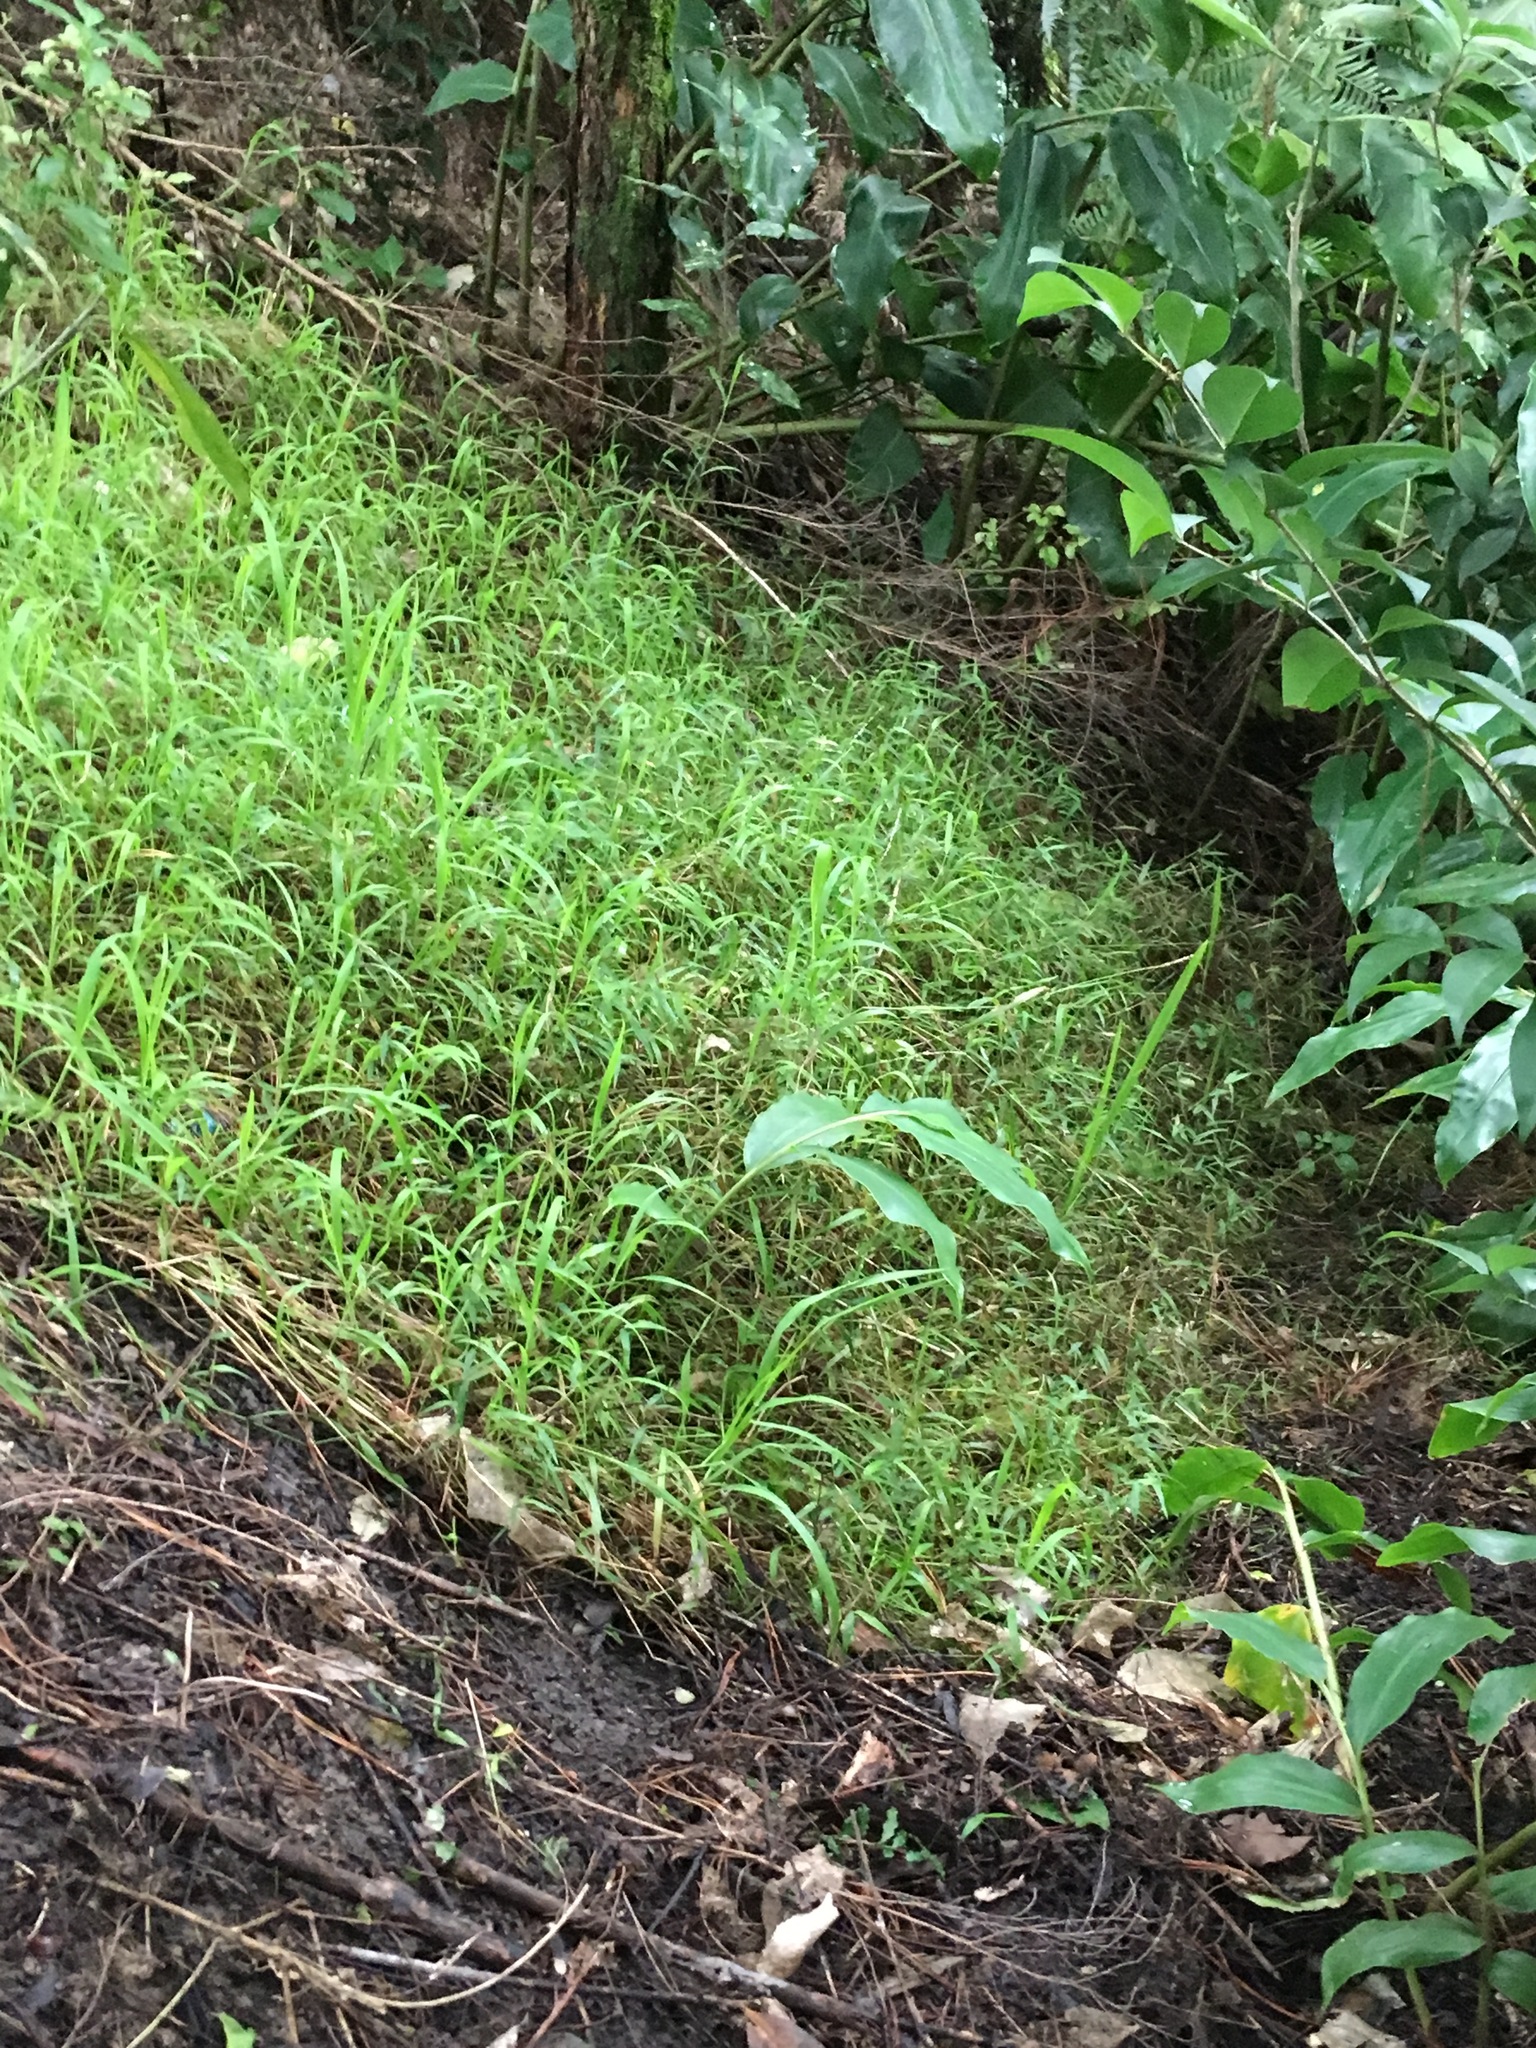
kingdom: Plantae
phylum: Tracheophyta
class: Liliopsida
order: Zingiberales
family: Zingiberaceae
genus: Hedychium
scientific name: Hedychium gardnerianum
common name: Himalayan ginger
